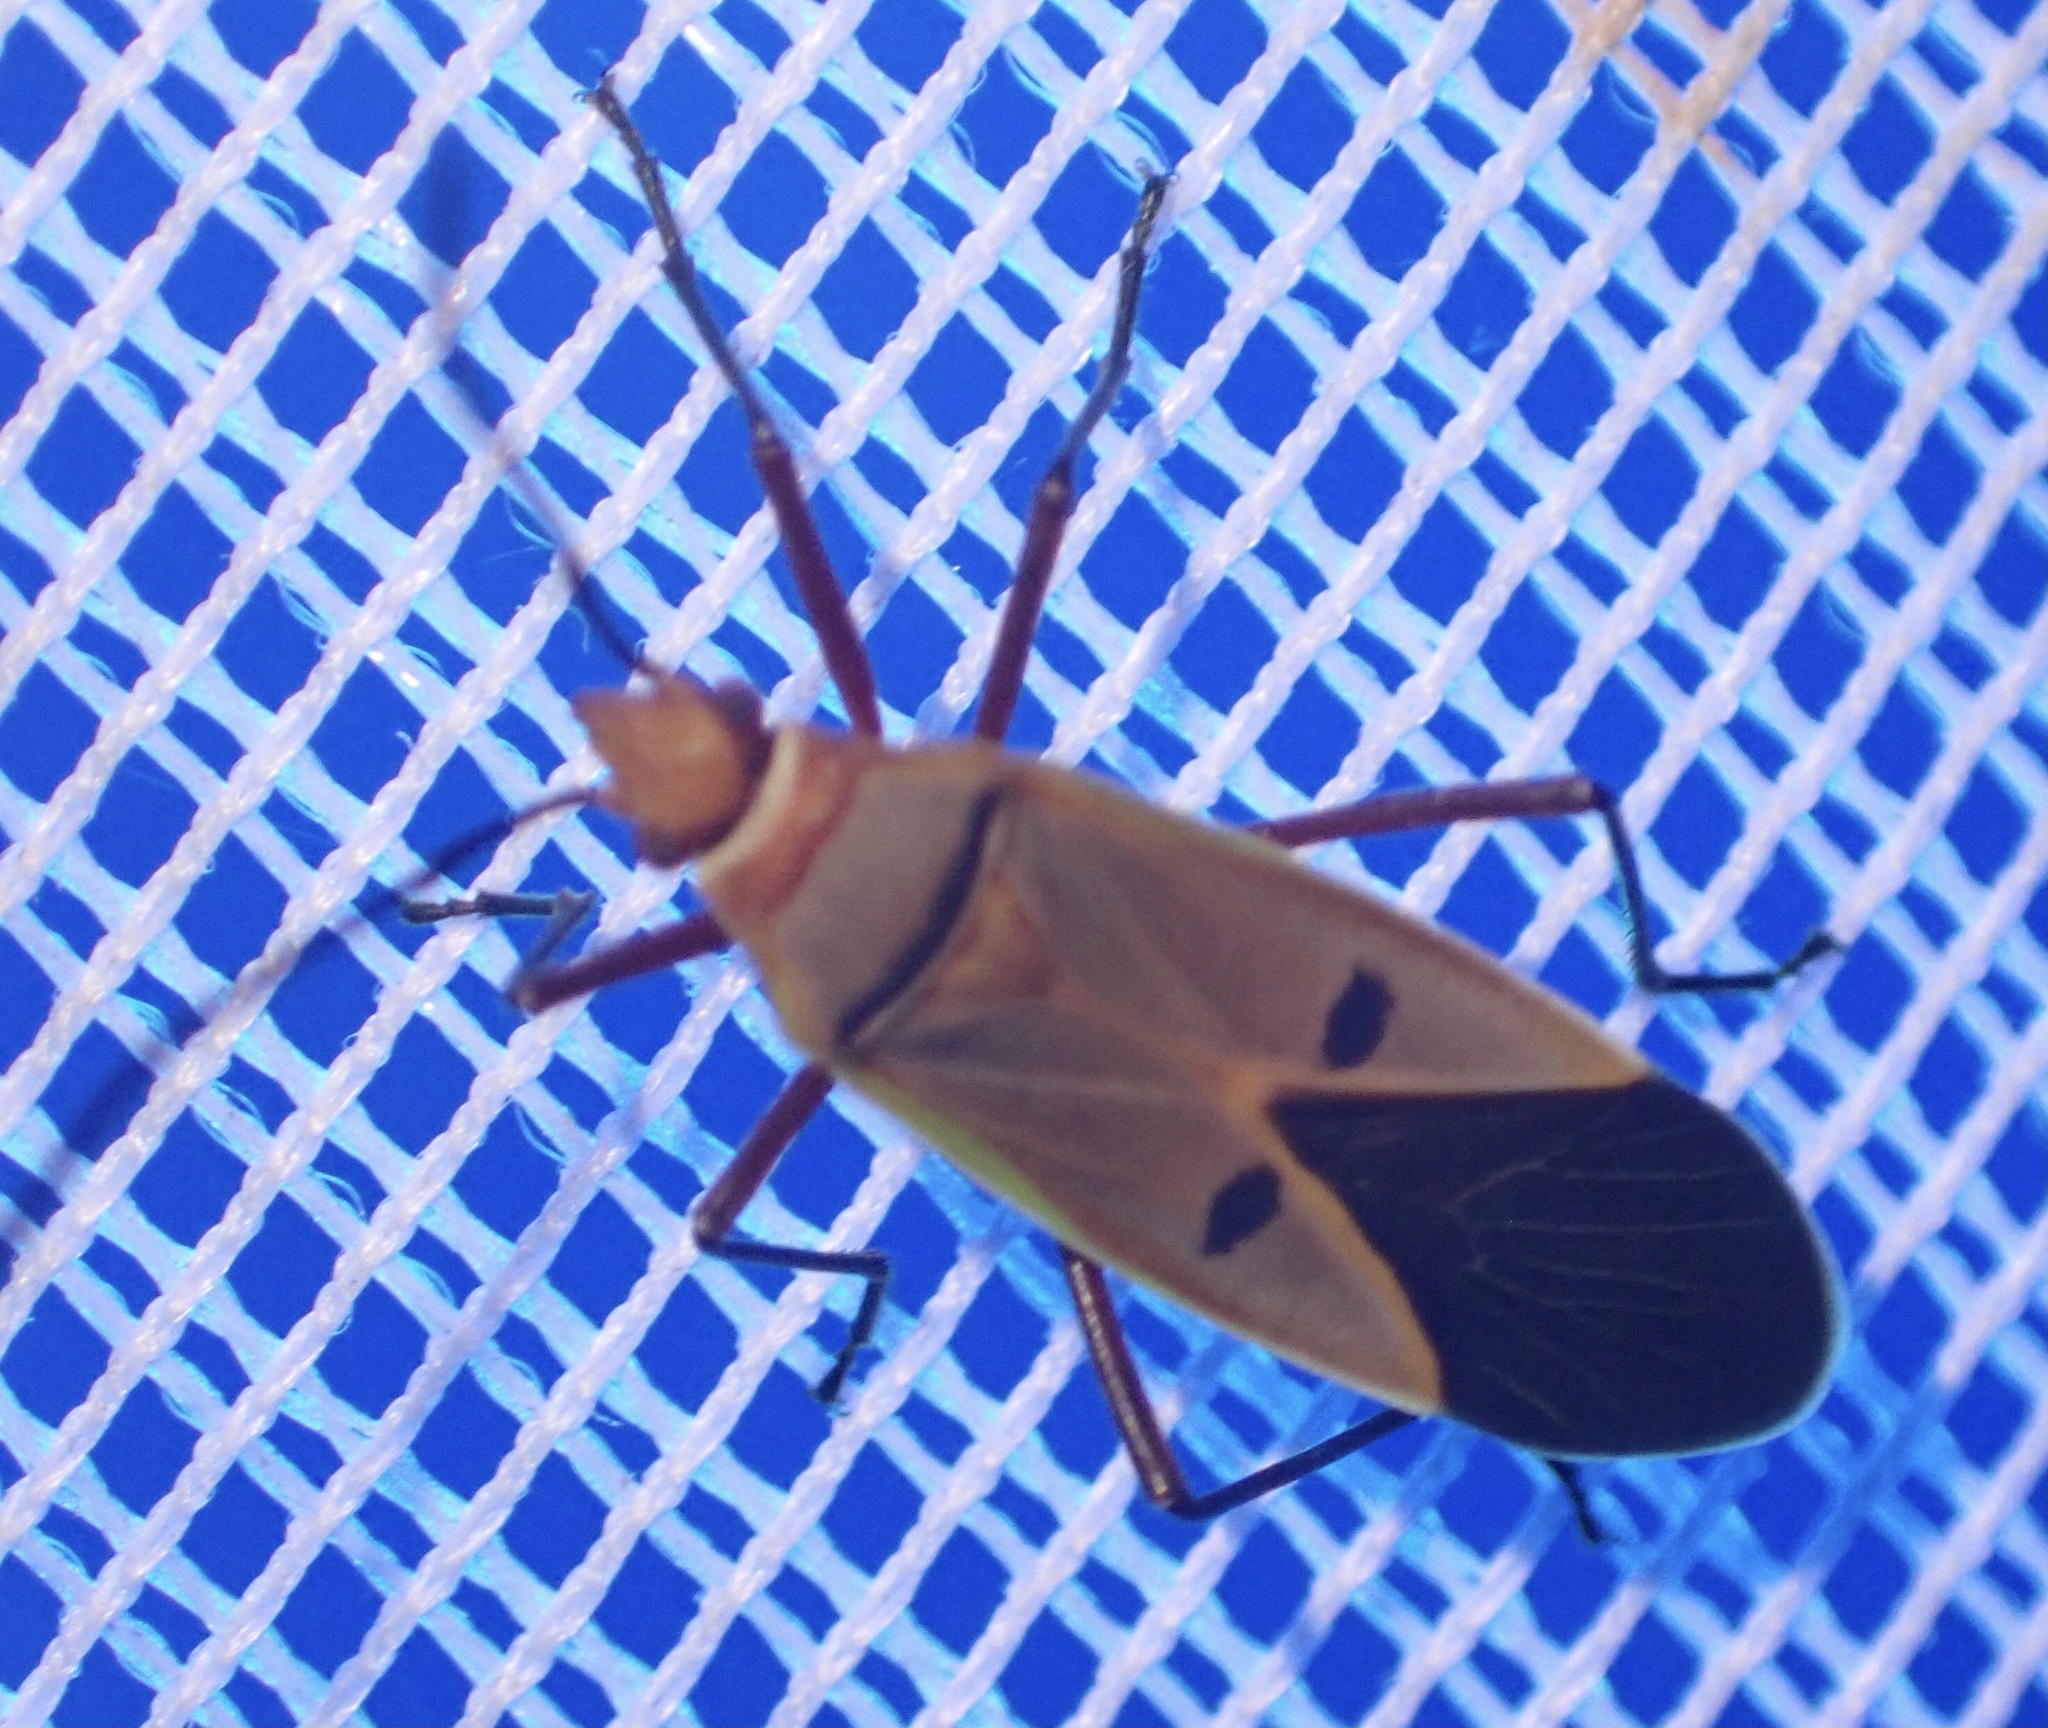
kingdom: Animalia
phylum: Arthropoda
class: Insecta
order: Hemiptera
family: Pyrrhocoridae
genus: Dysdercus
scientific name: Dysdercus superstitiosus
